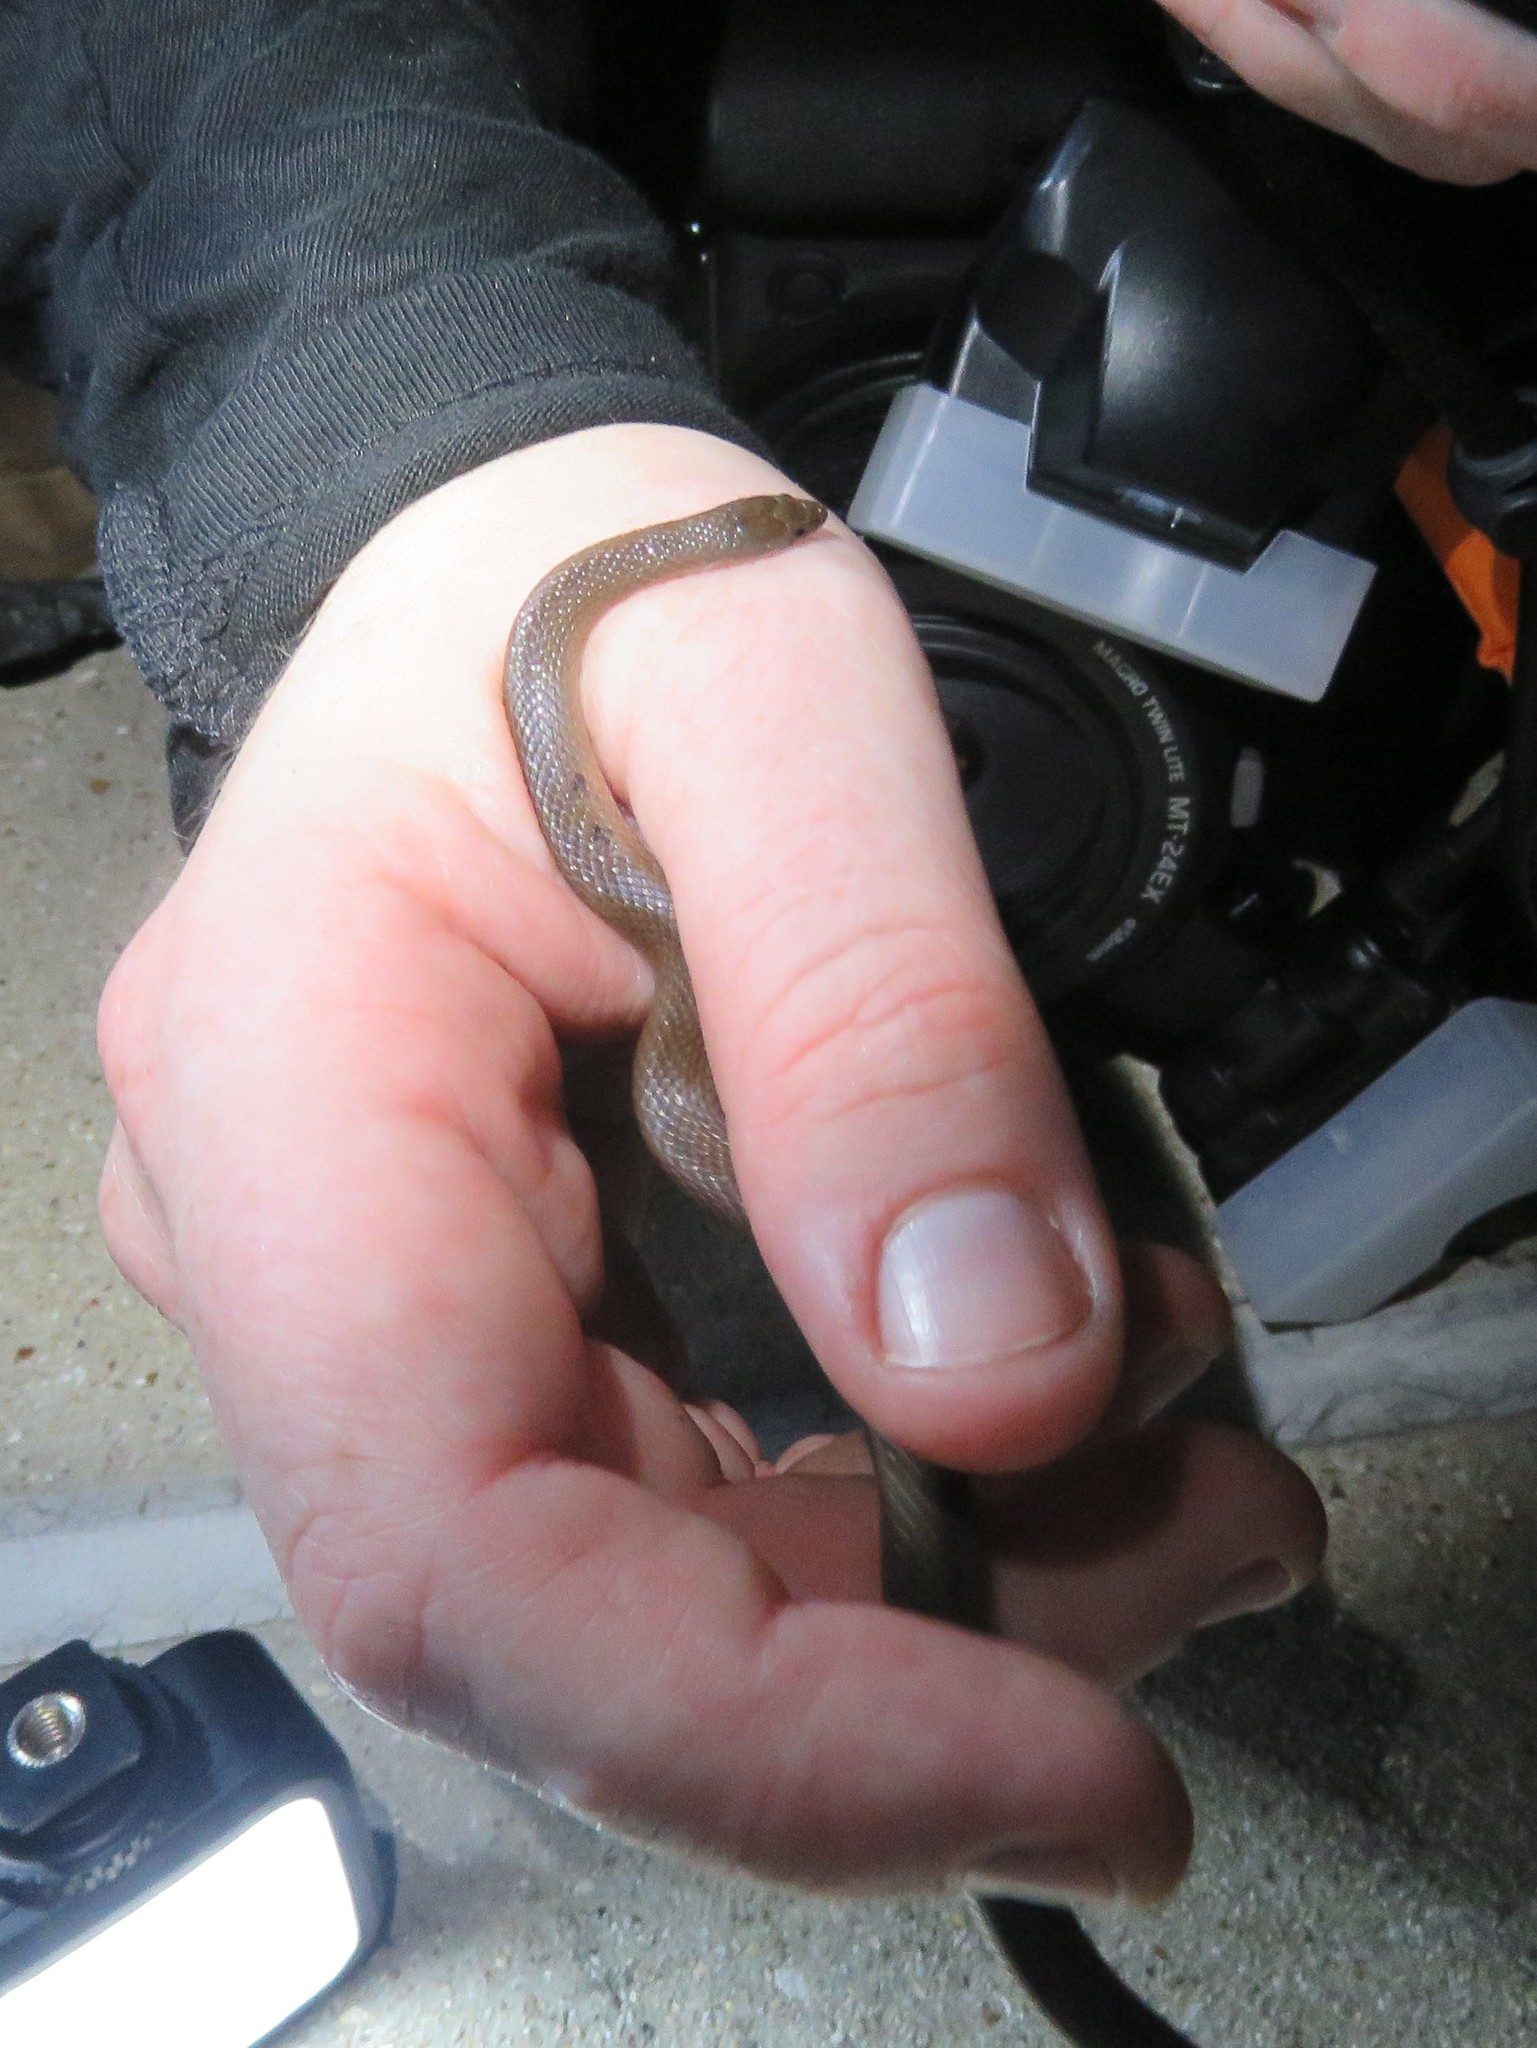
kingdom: Animalia
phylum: Chordata
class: Squamata
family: Colubridae
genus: Haldea
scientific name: Haldea striatula
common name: Rough earth snake
